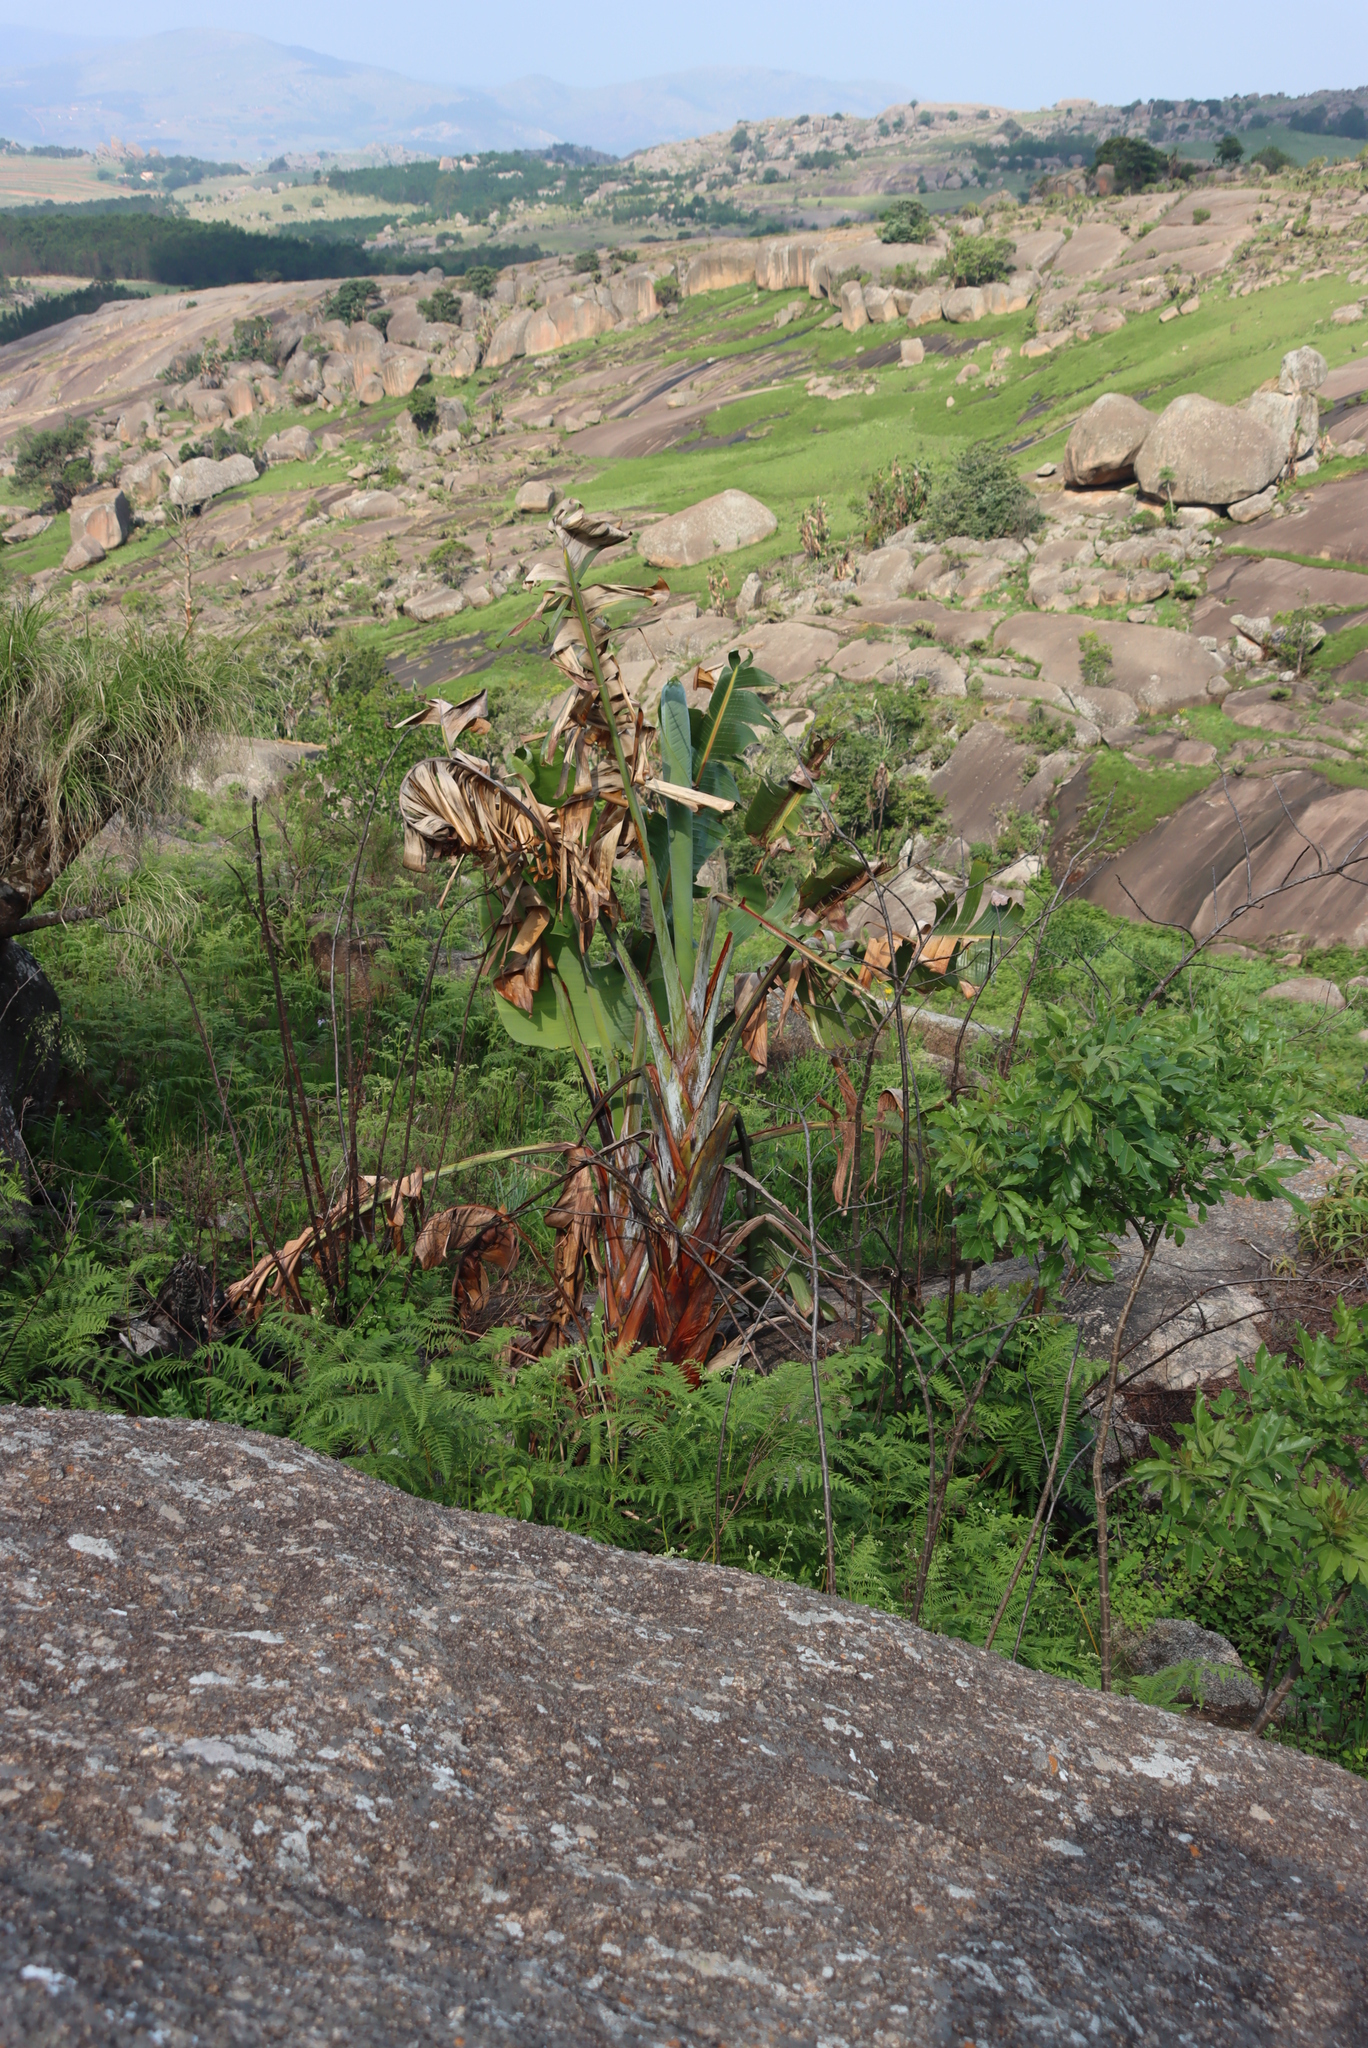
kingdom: Plantae
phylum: Tracheophyta
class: Liliopsida
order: Zingiberales
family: Strelitziaceae
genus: Strelitzia
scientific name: Strelitzia caudata
